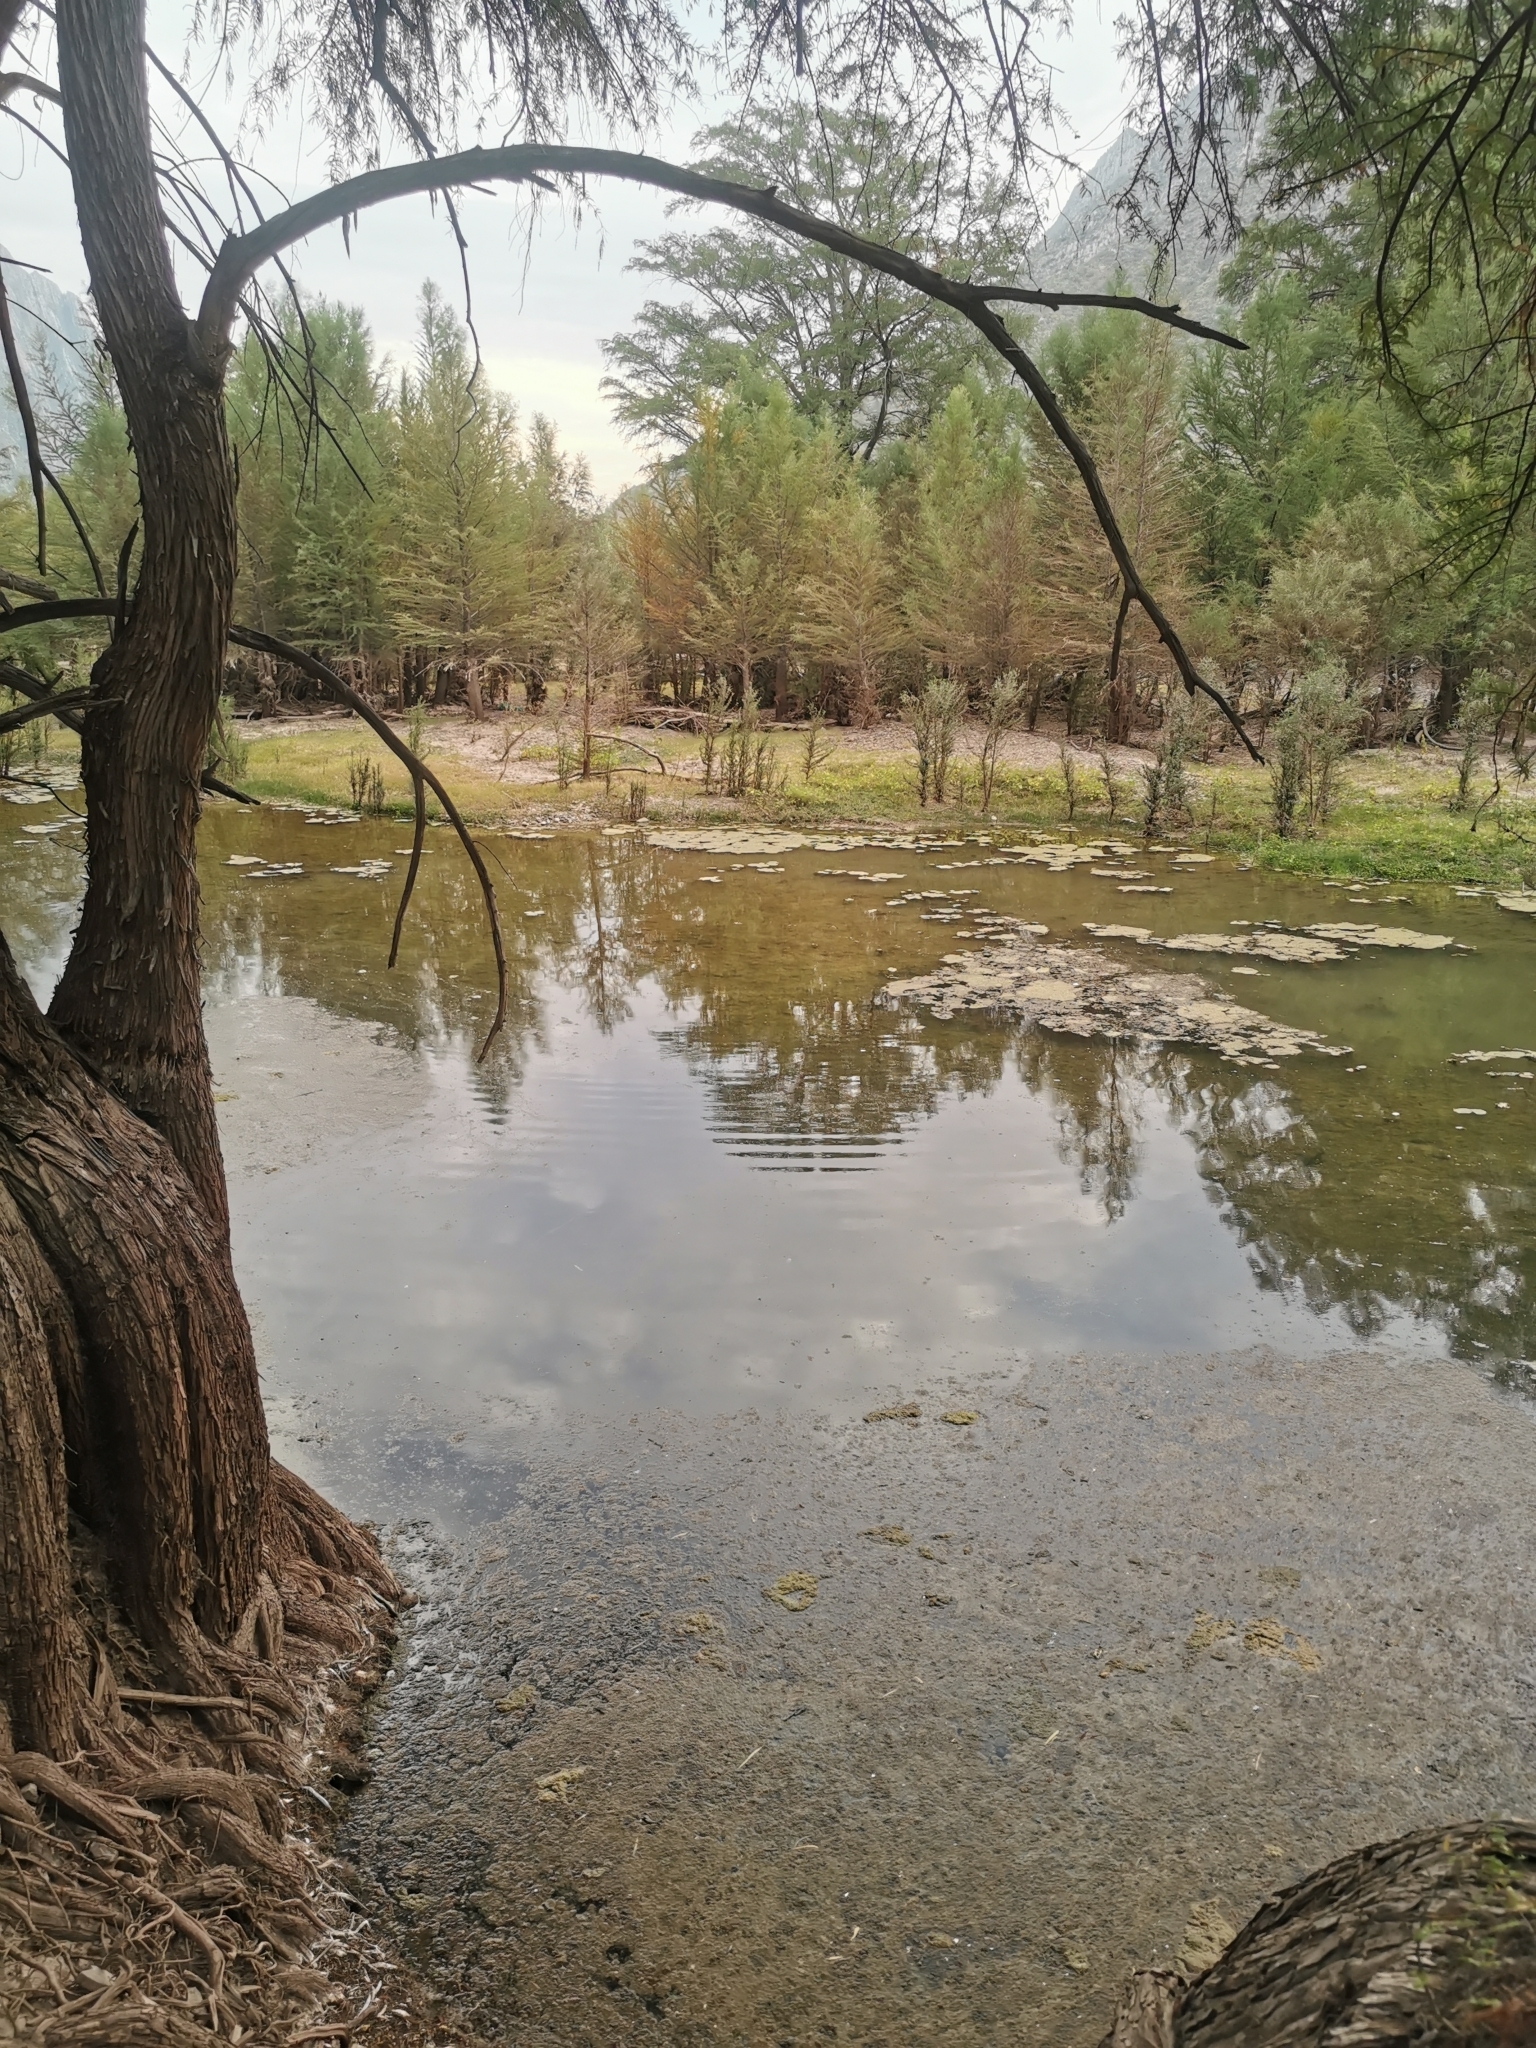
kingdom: Plantae
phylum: Tracheophyta
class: Pinopsida
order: Pinales
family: Cupressaceae
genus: Taxodium
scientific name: Taxodium mucronatum
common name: Montezume bald cypress
